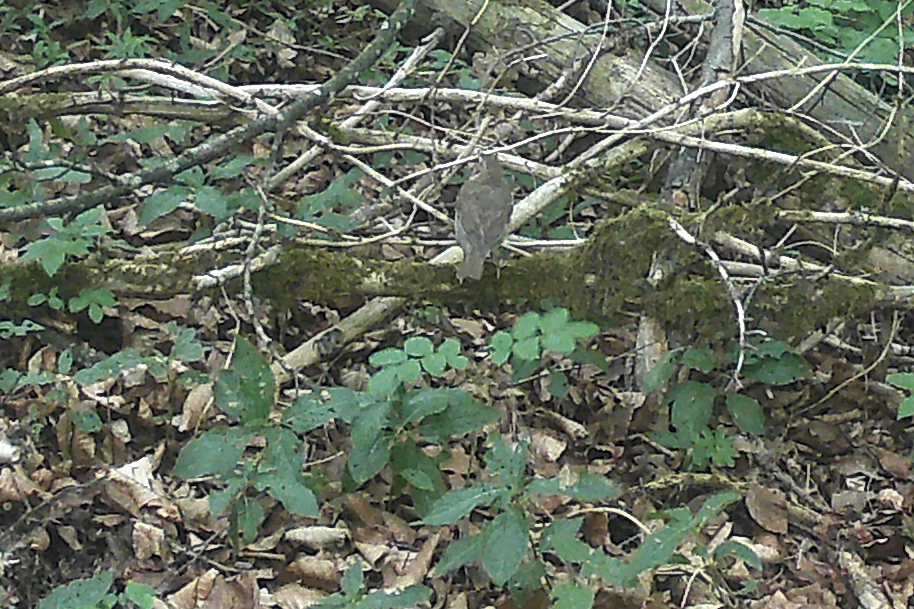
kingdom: Animalia
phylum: Chordata
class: Aves
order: Passeriformes
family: Turdidae
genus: Turdus
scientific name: Turdus philomelos
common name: Song thrush
